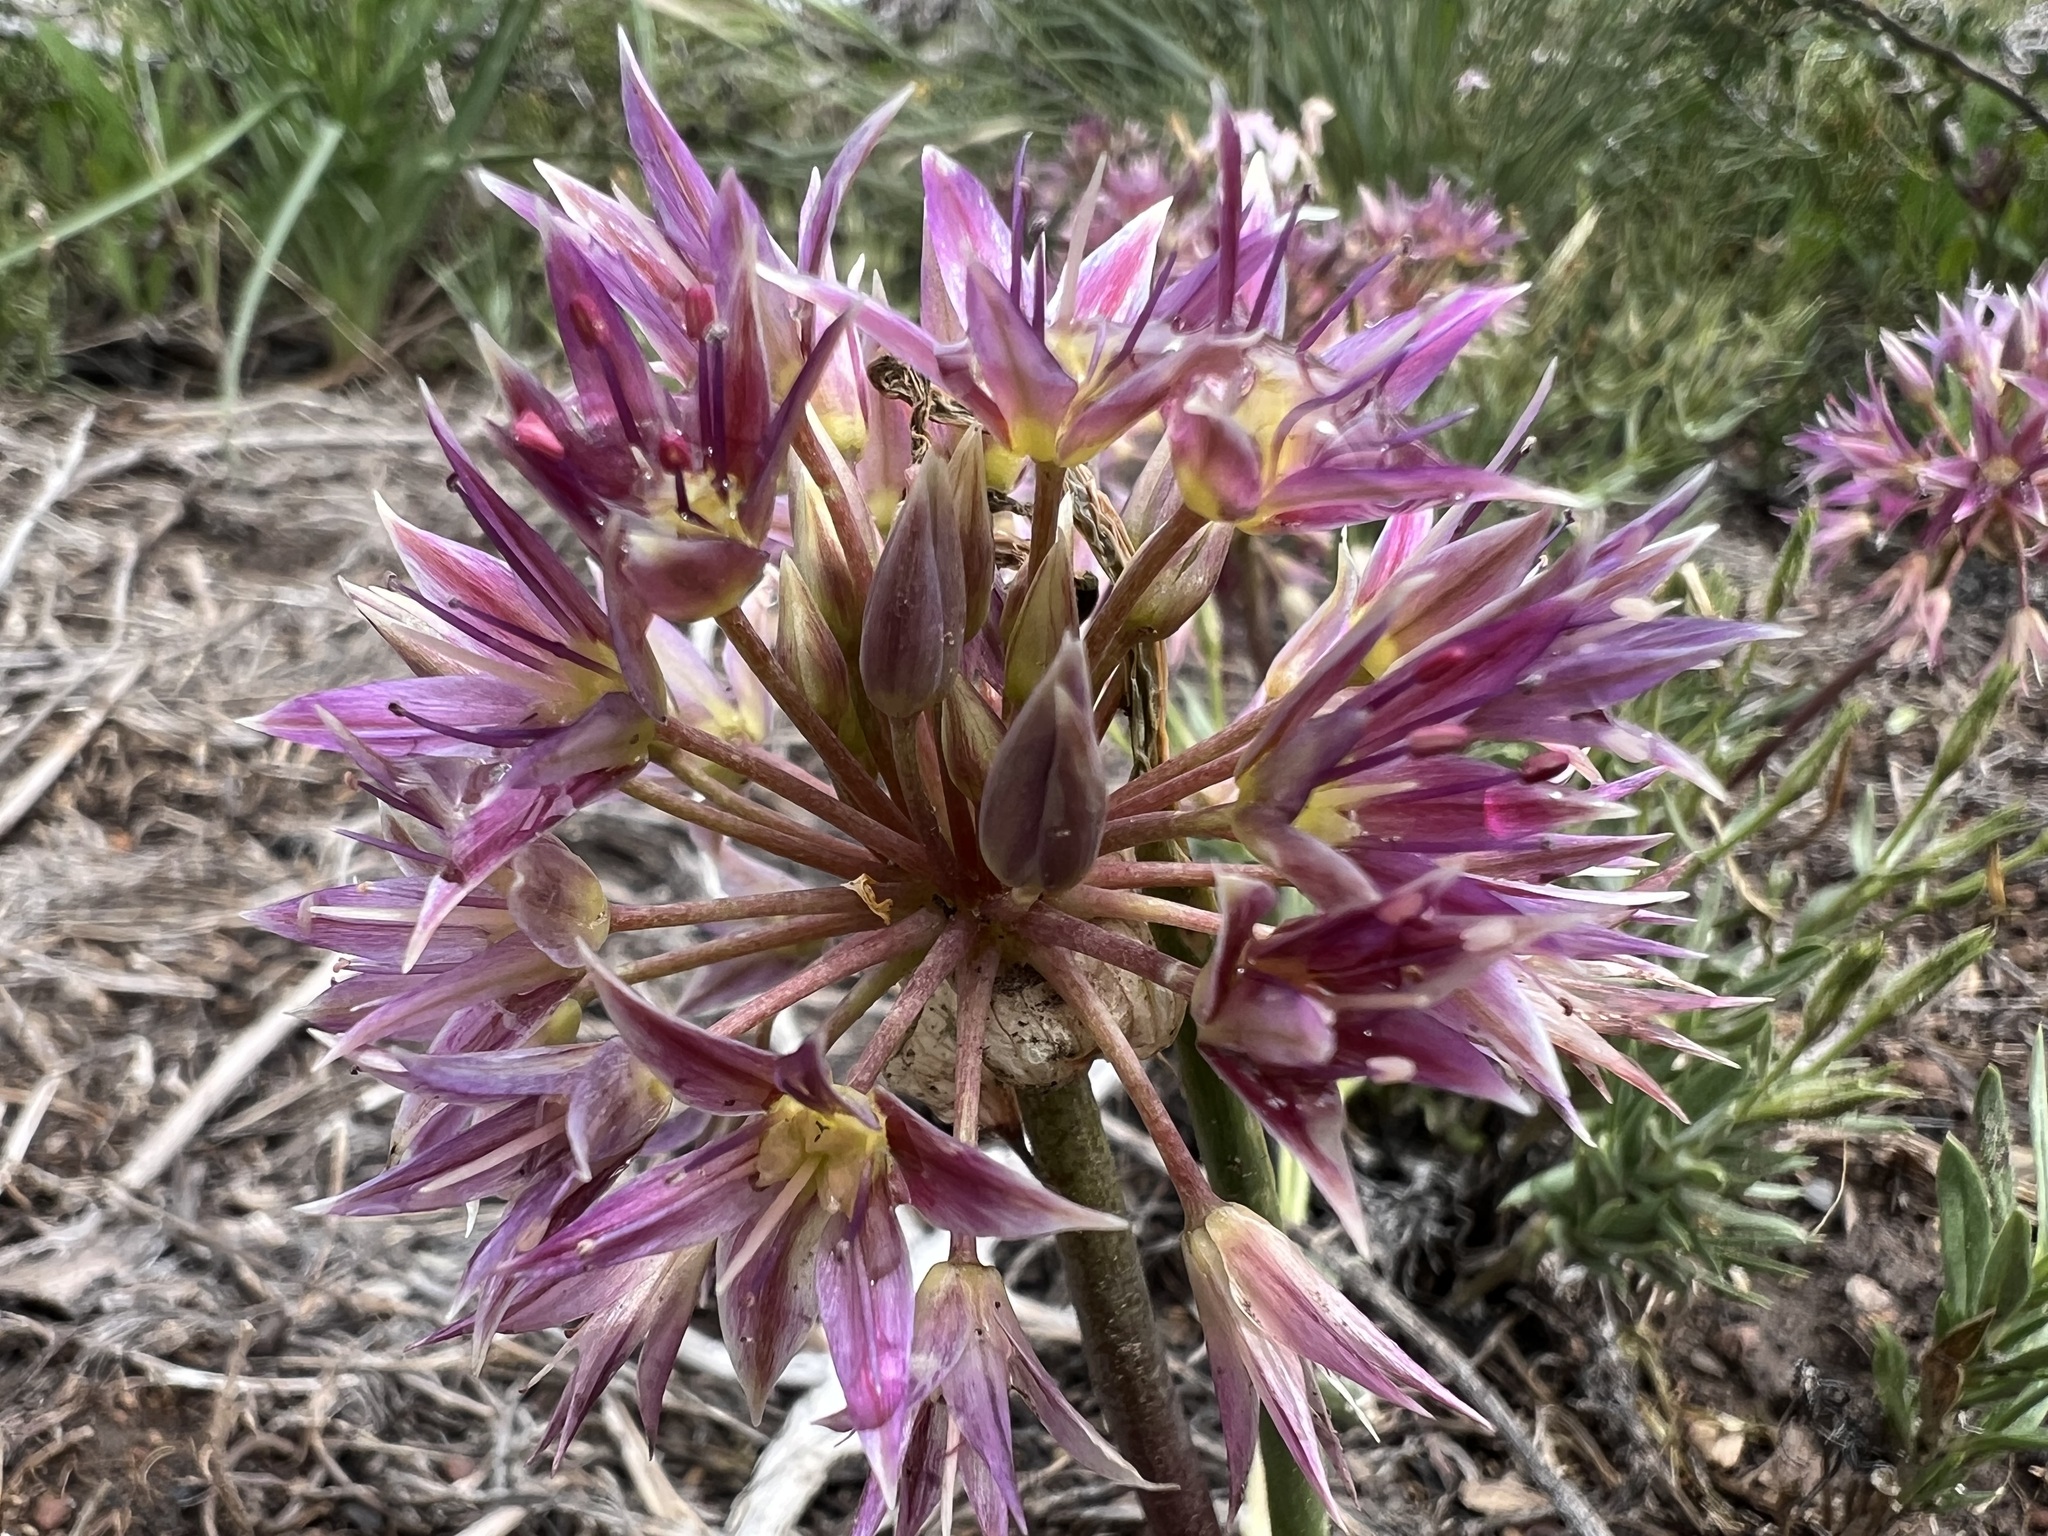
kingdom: Plantae
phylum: Tracheophyta
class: Liliopsida
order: Asparagales
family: Amaryllidaceae
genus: Allium
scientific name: Allium atrorubens
